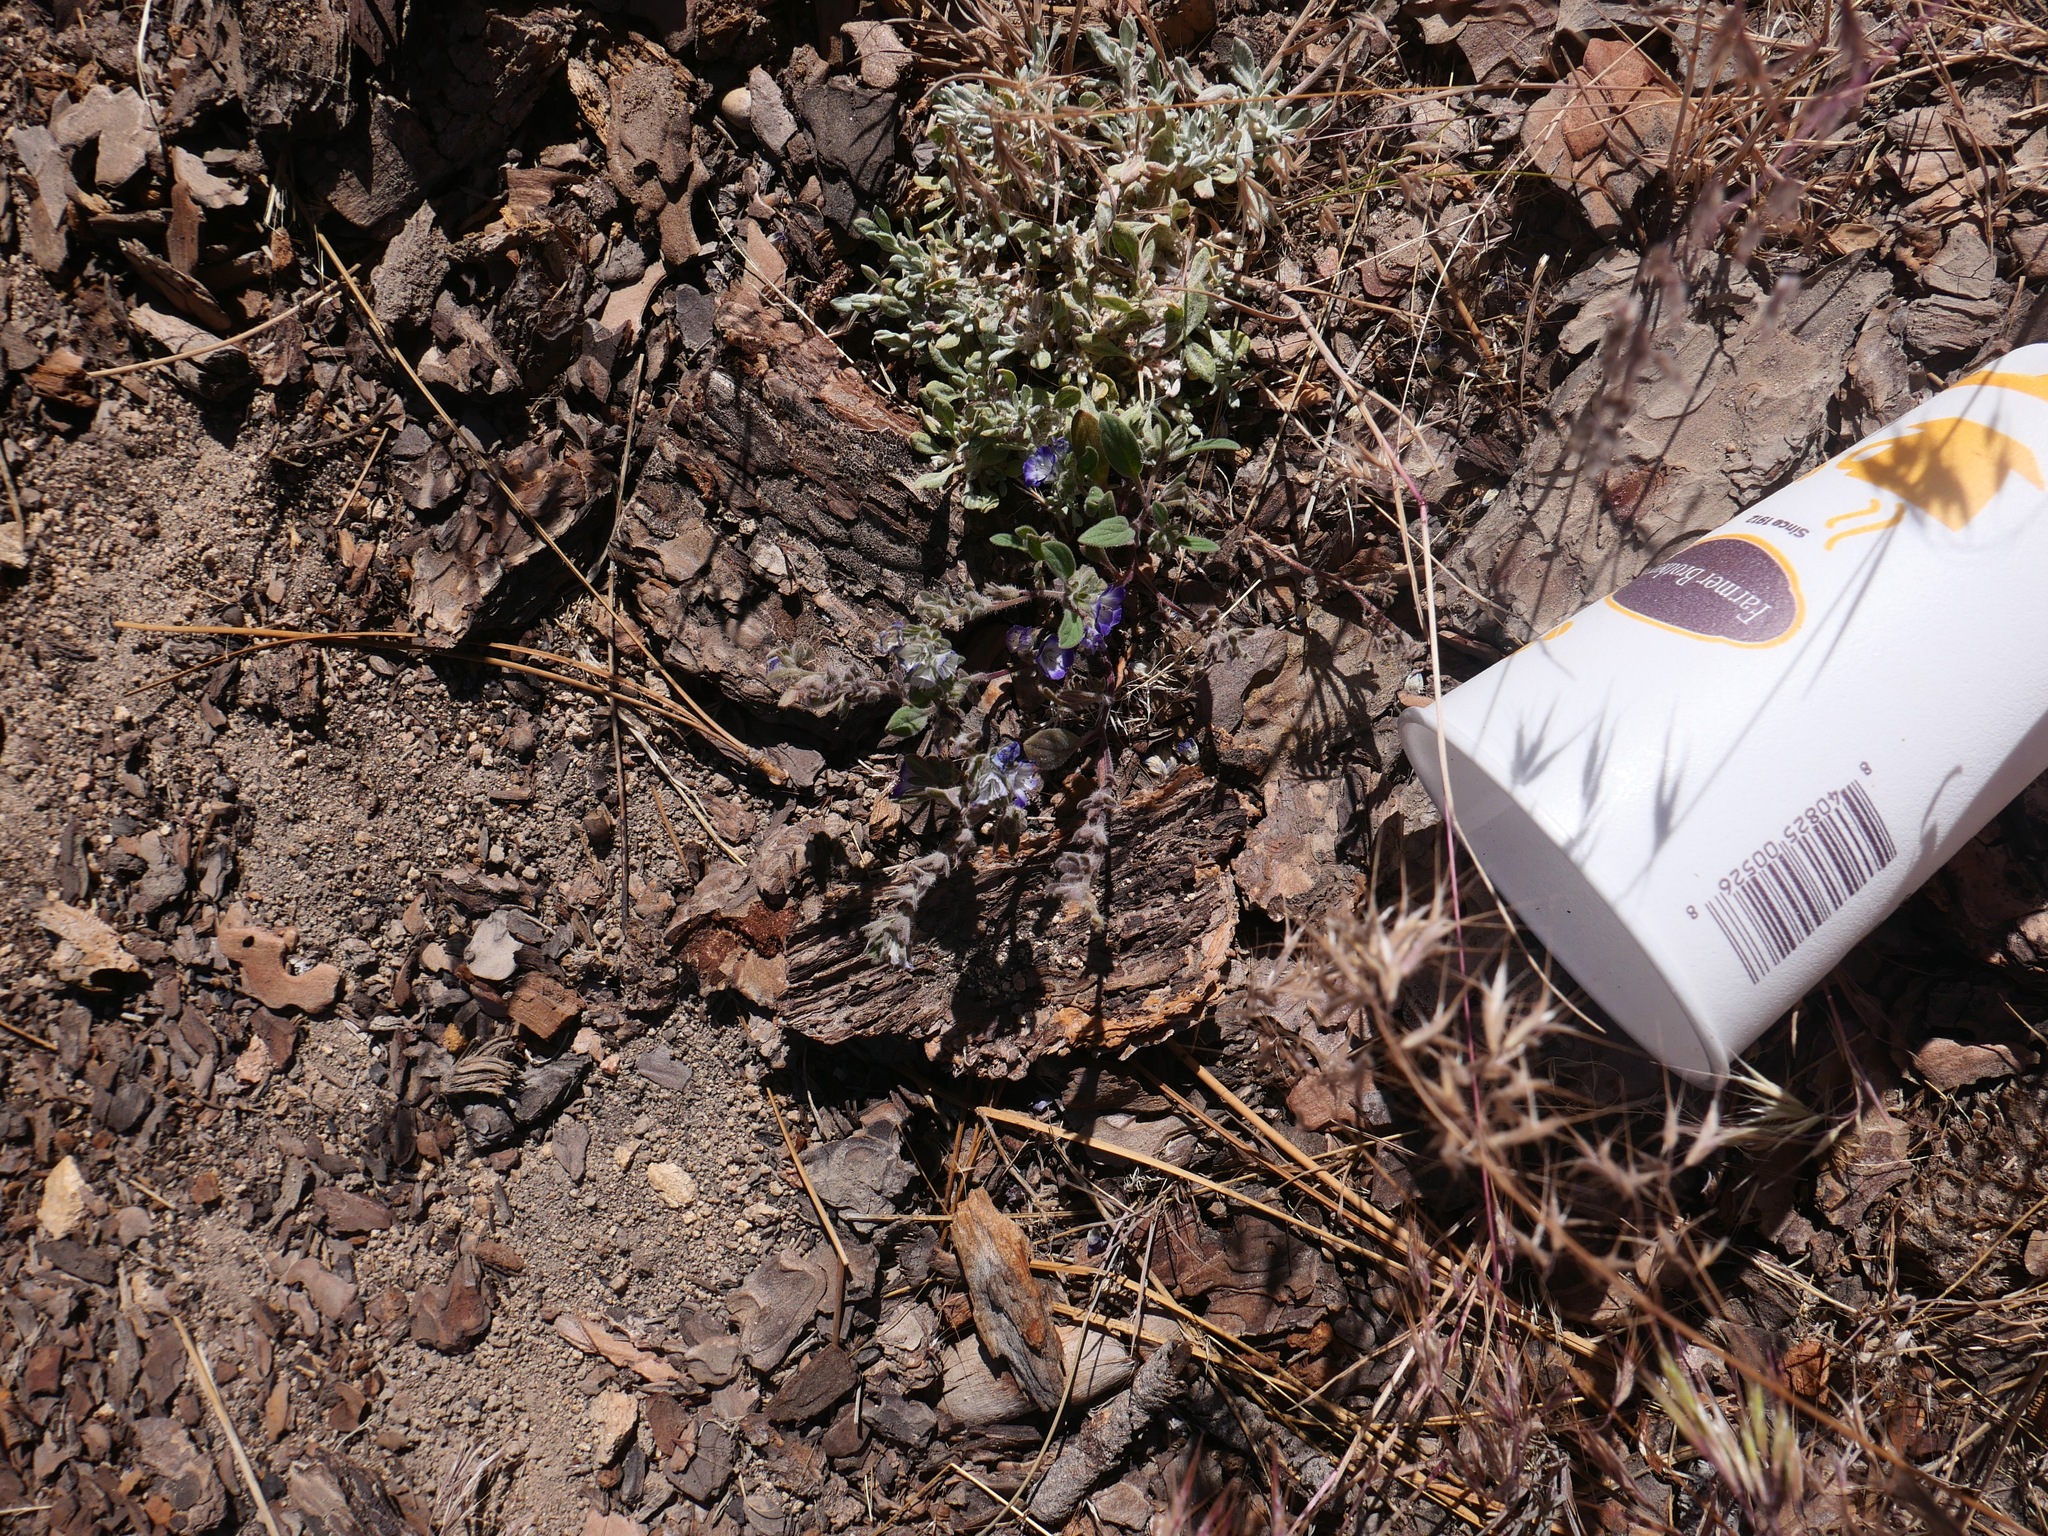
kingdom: Plantae
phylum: Tracheophyta
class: Magnoliopsida
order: Boraginales
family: Hydrophyllaceae
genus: Phacelia
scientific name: Phacelia davidsonii
